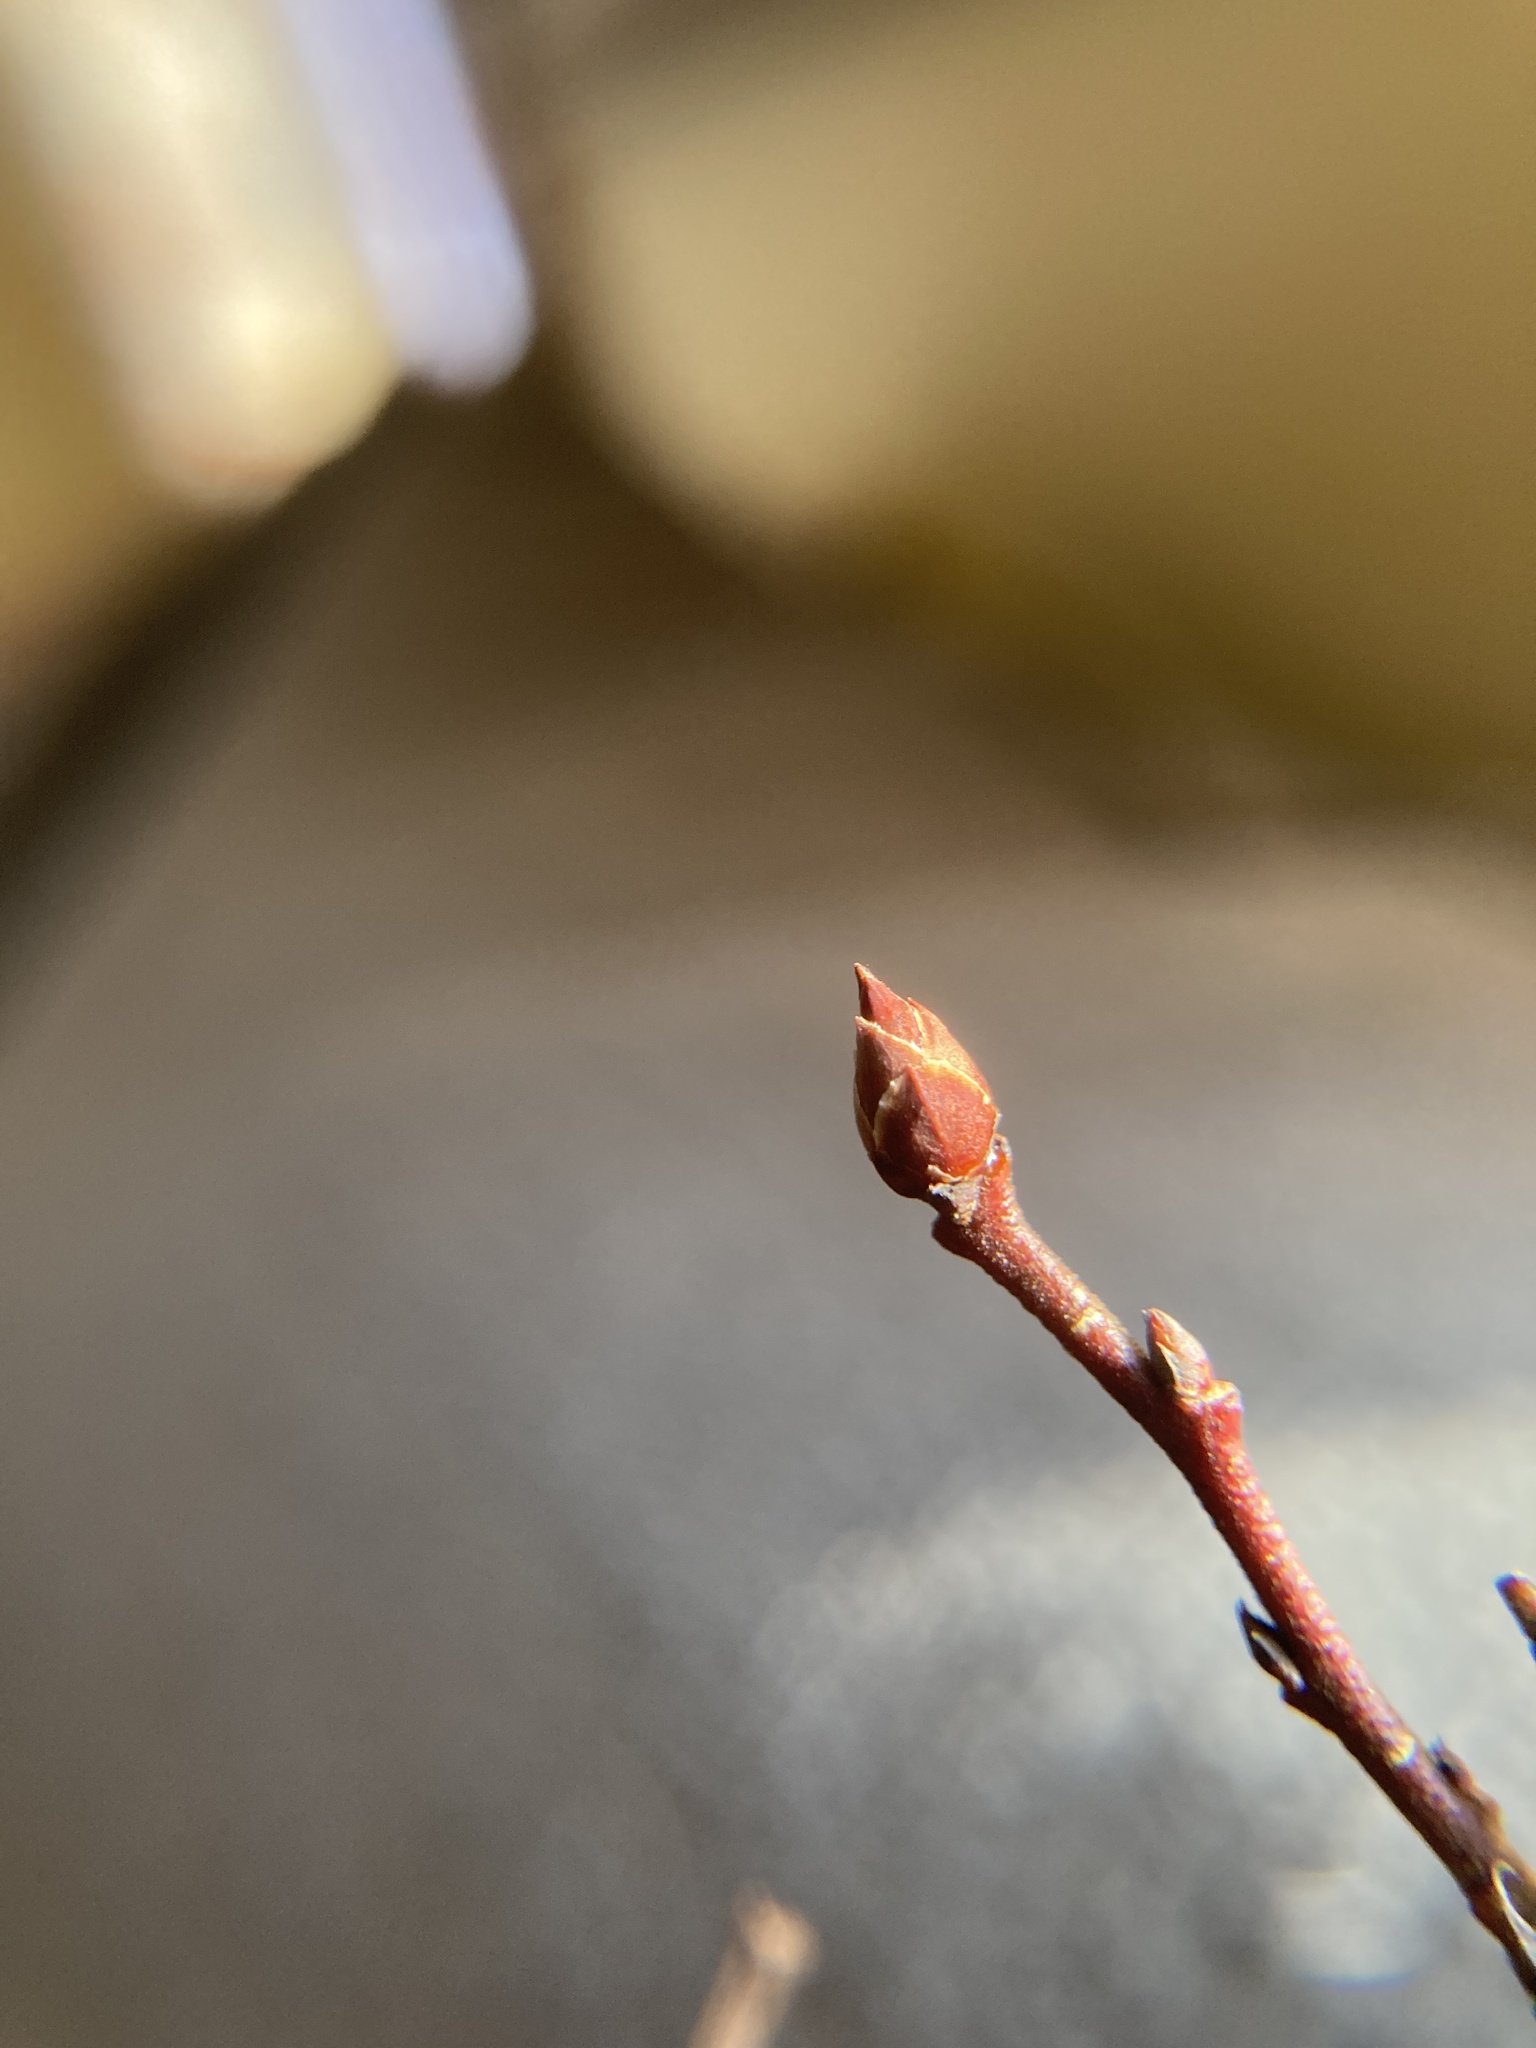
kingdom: Plantae
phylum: Tracheophyta
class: Magnoliopsida
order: Ericales
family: Ericaceae
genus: Vaccinium
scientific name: Vaccinium corymbosum
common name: Blueberry
